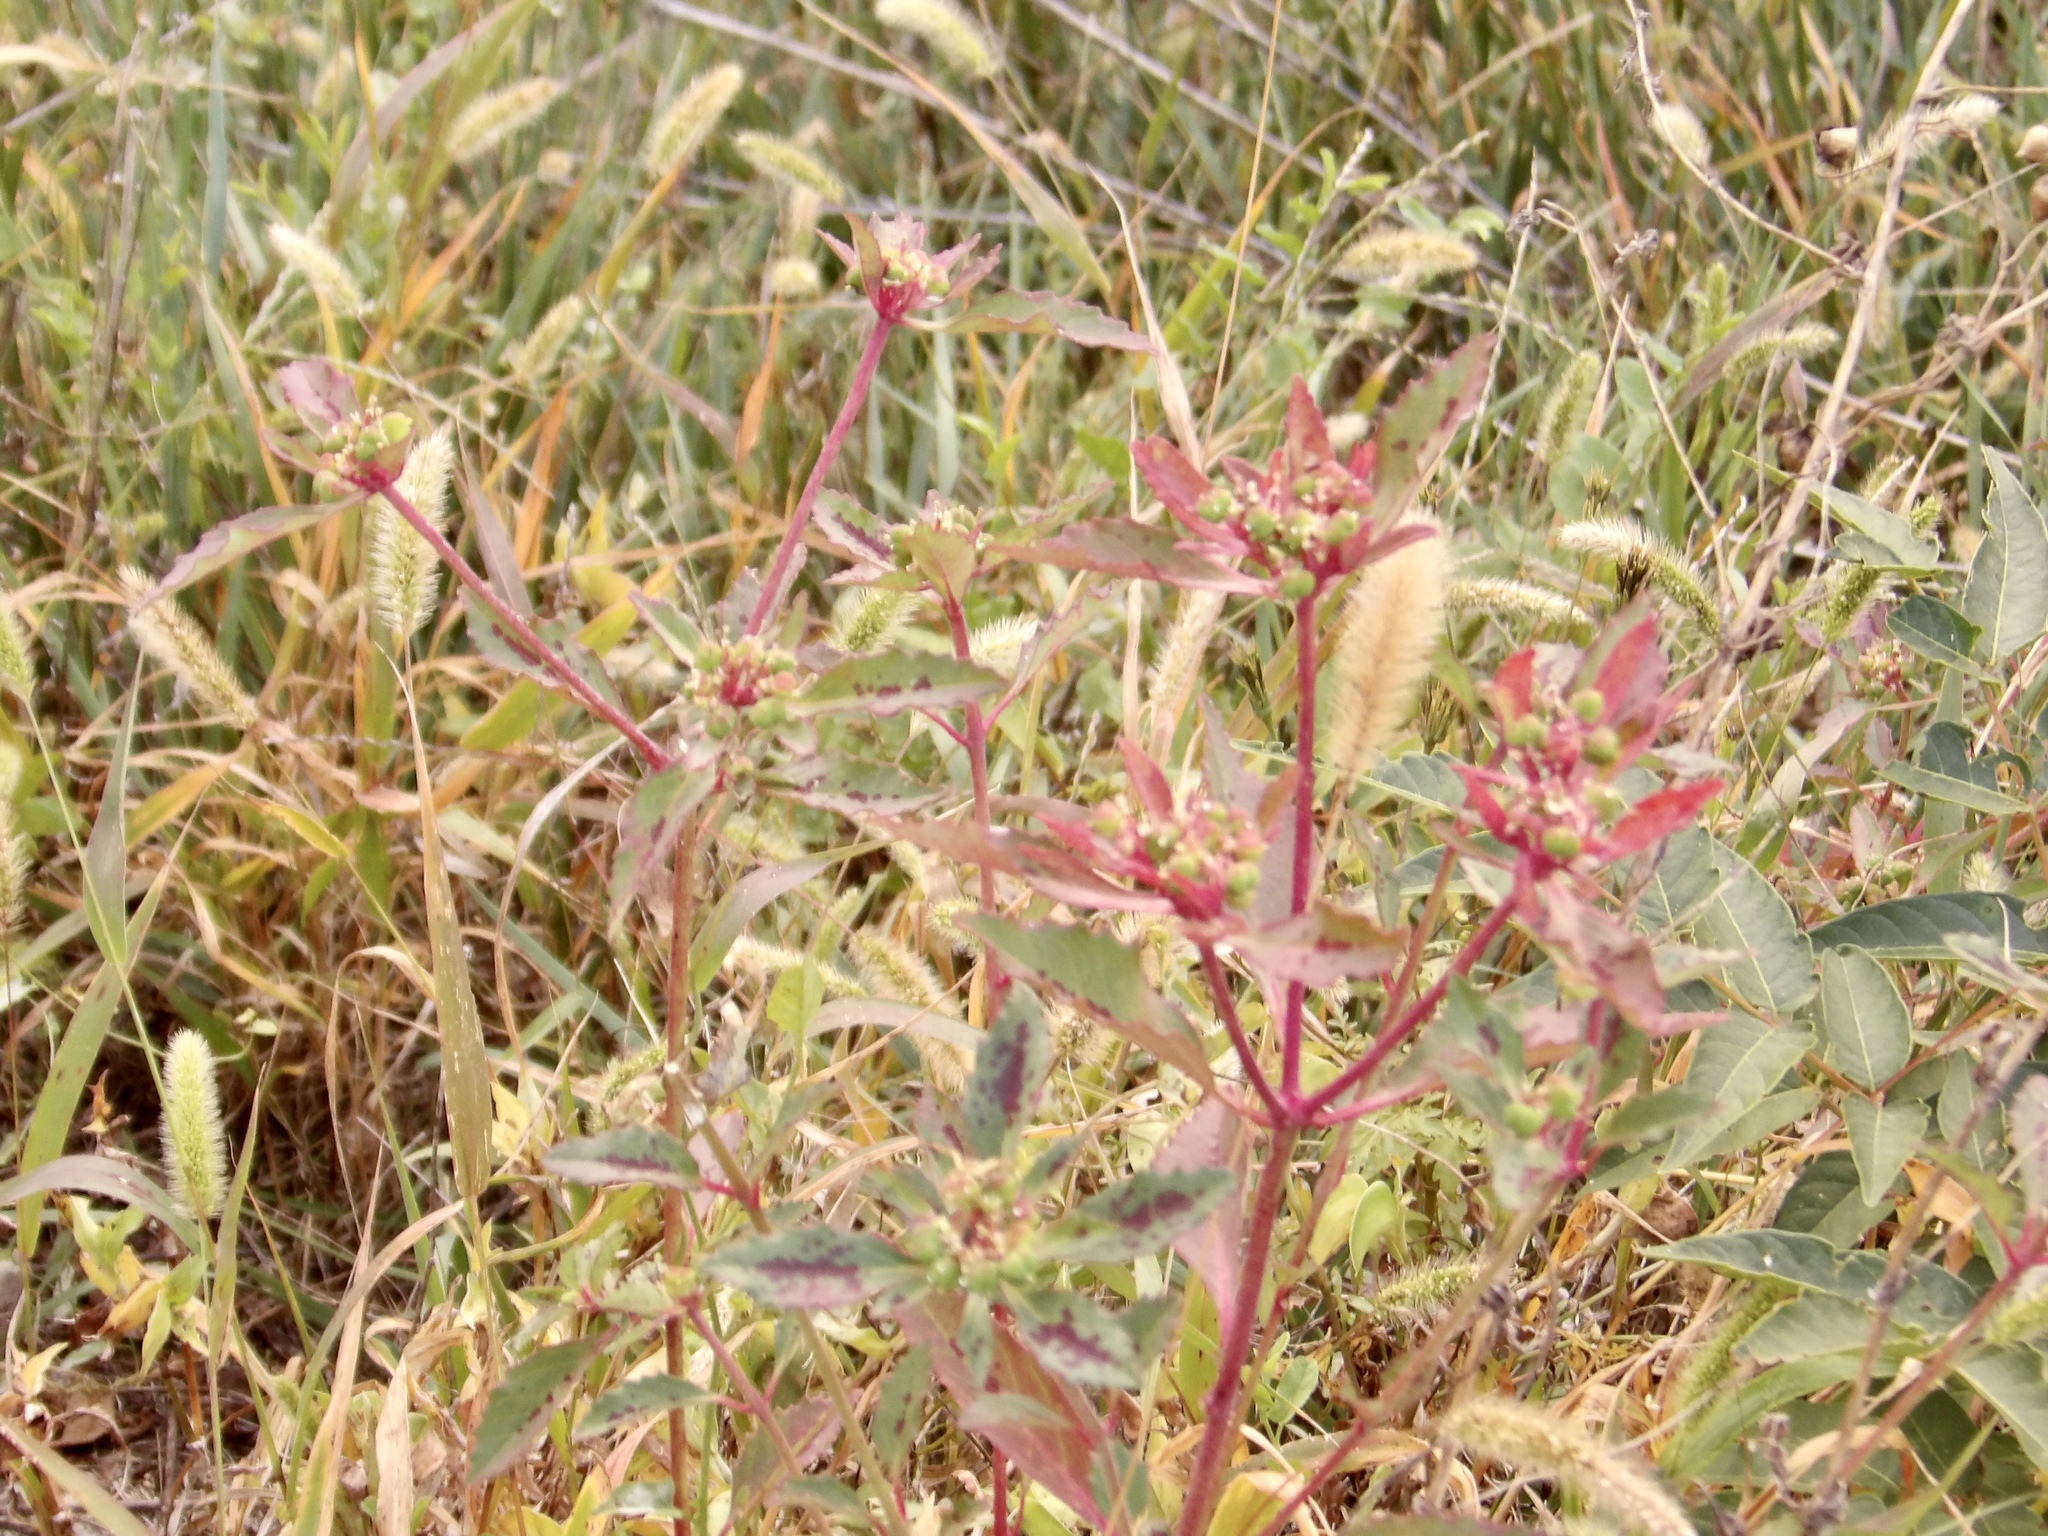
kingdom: Plantae
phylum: Tracheophyta
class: Magnoliopsida
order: Malpighiales
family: Euphorbiaceae
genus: Euphorbia
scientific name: Euphorbia
